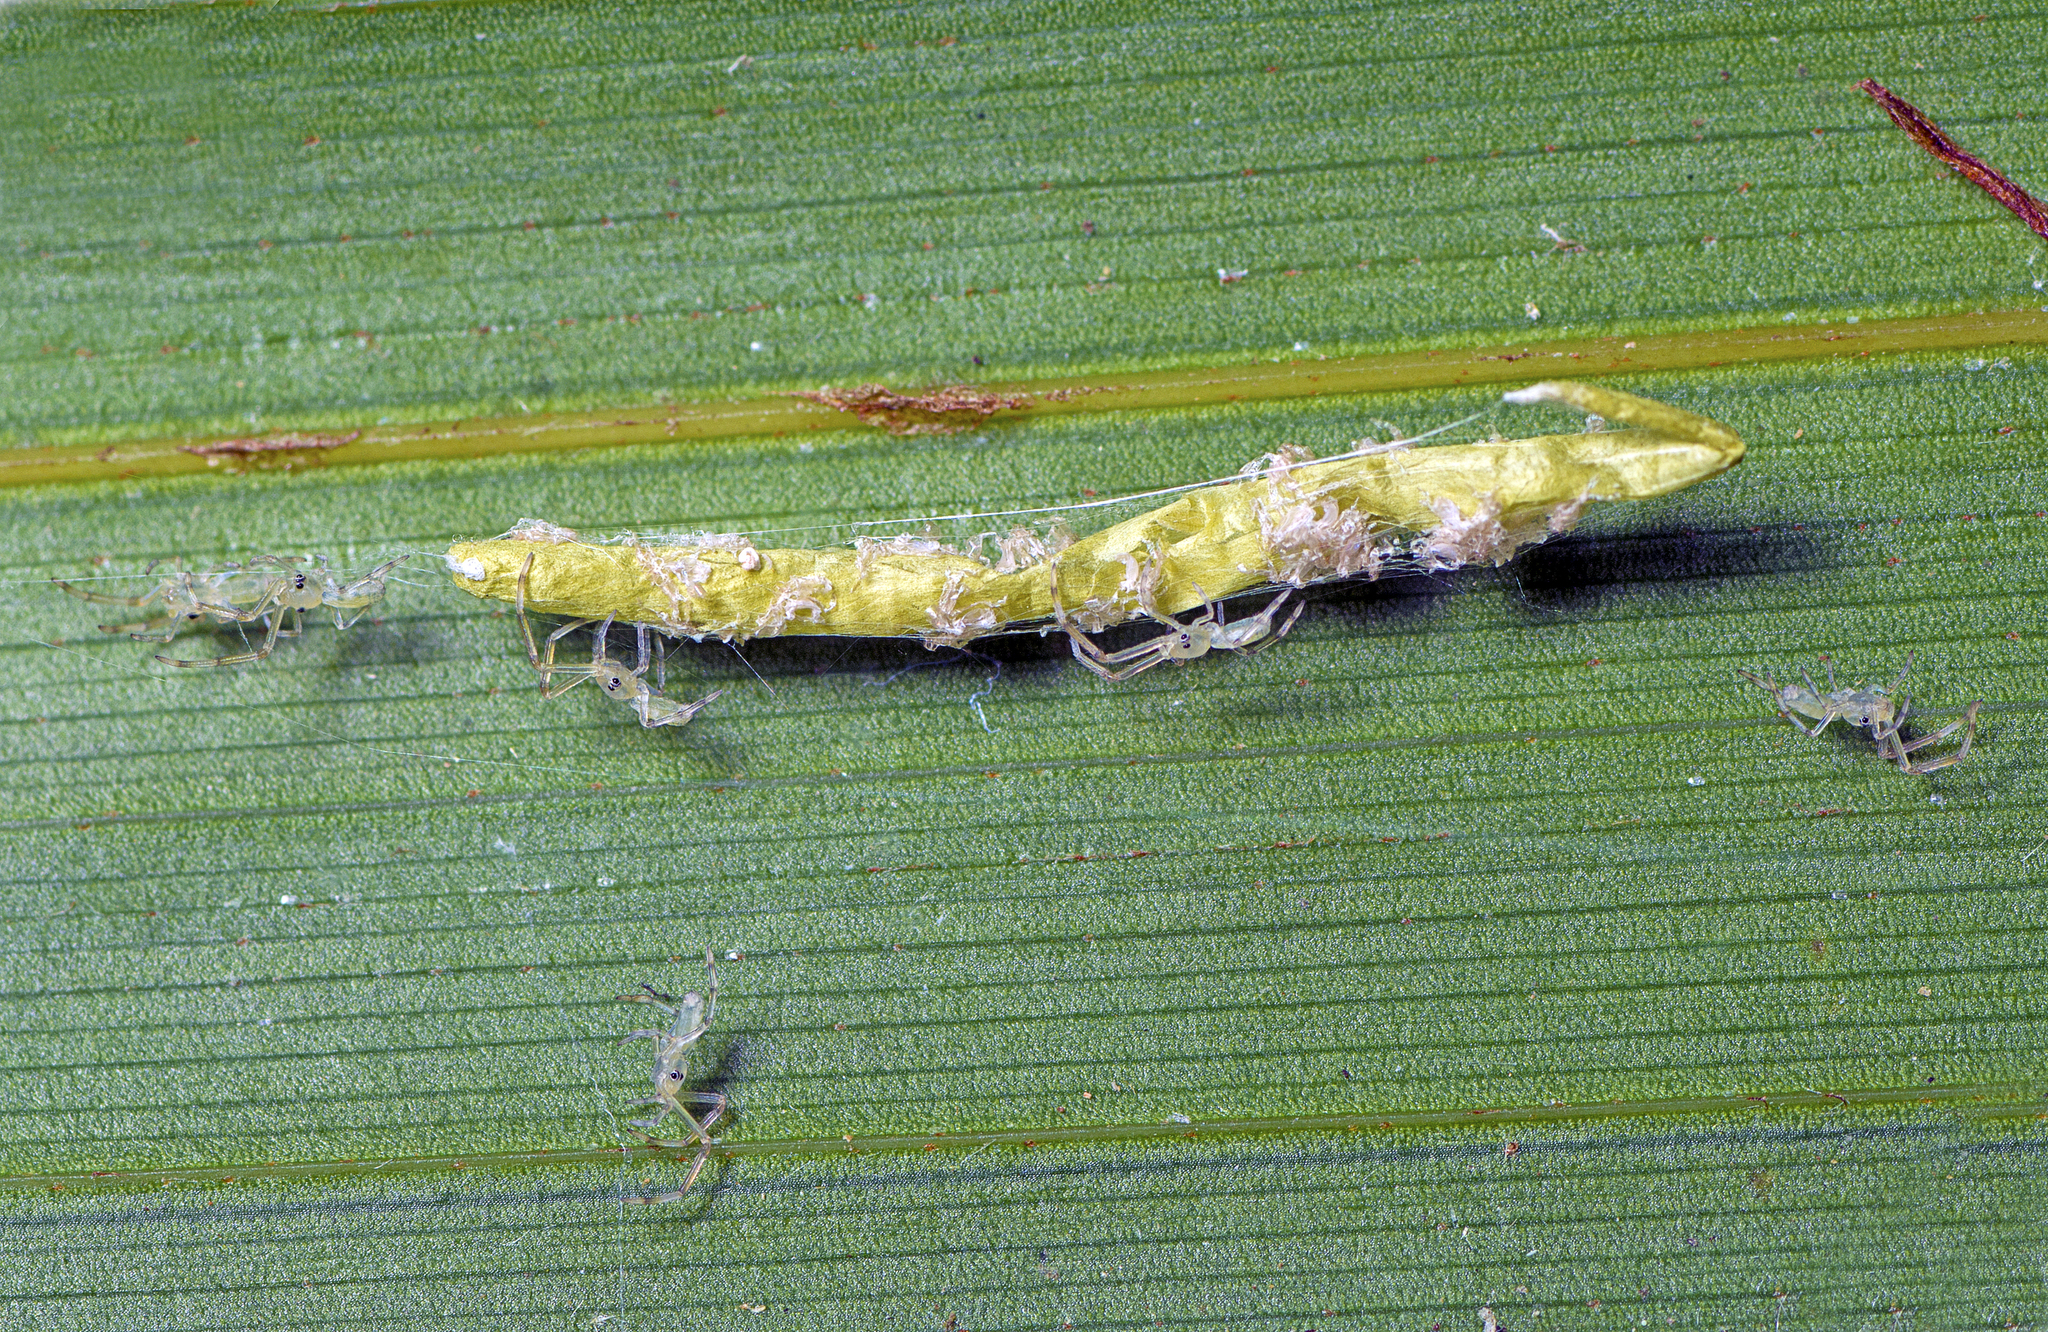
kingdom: Animalia
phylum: Arthropoda
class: Arachnida
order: Araneae
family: Uloboridae
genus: Miagrammopes
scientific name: Miagrammopes flavus
